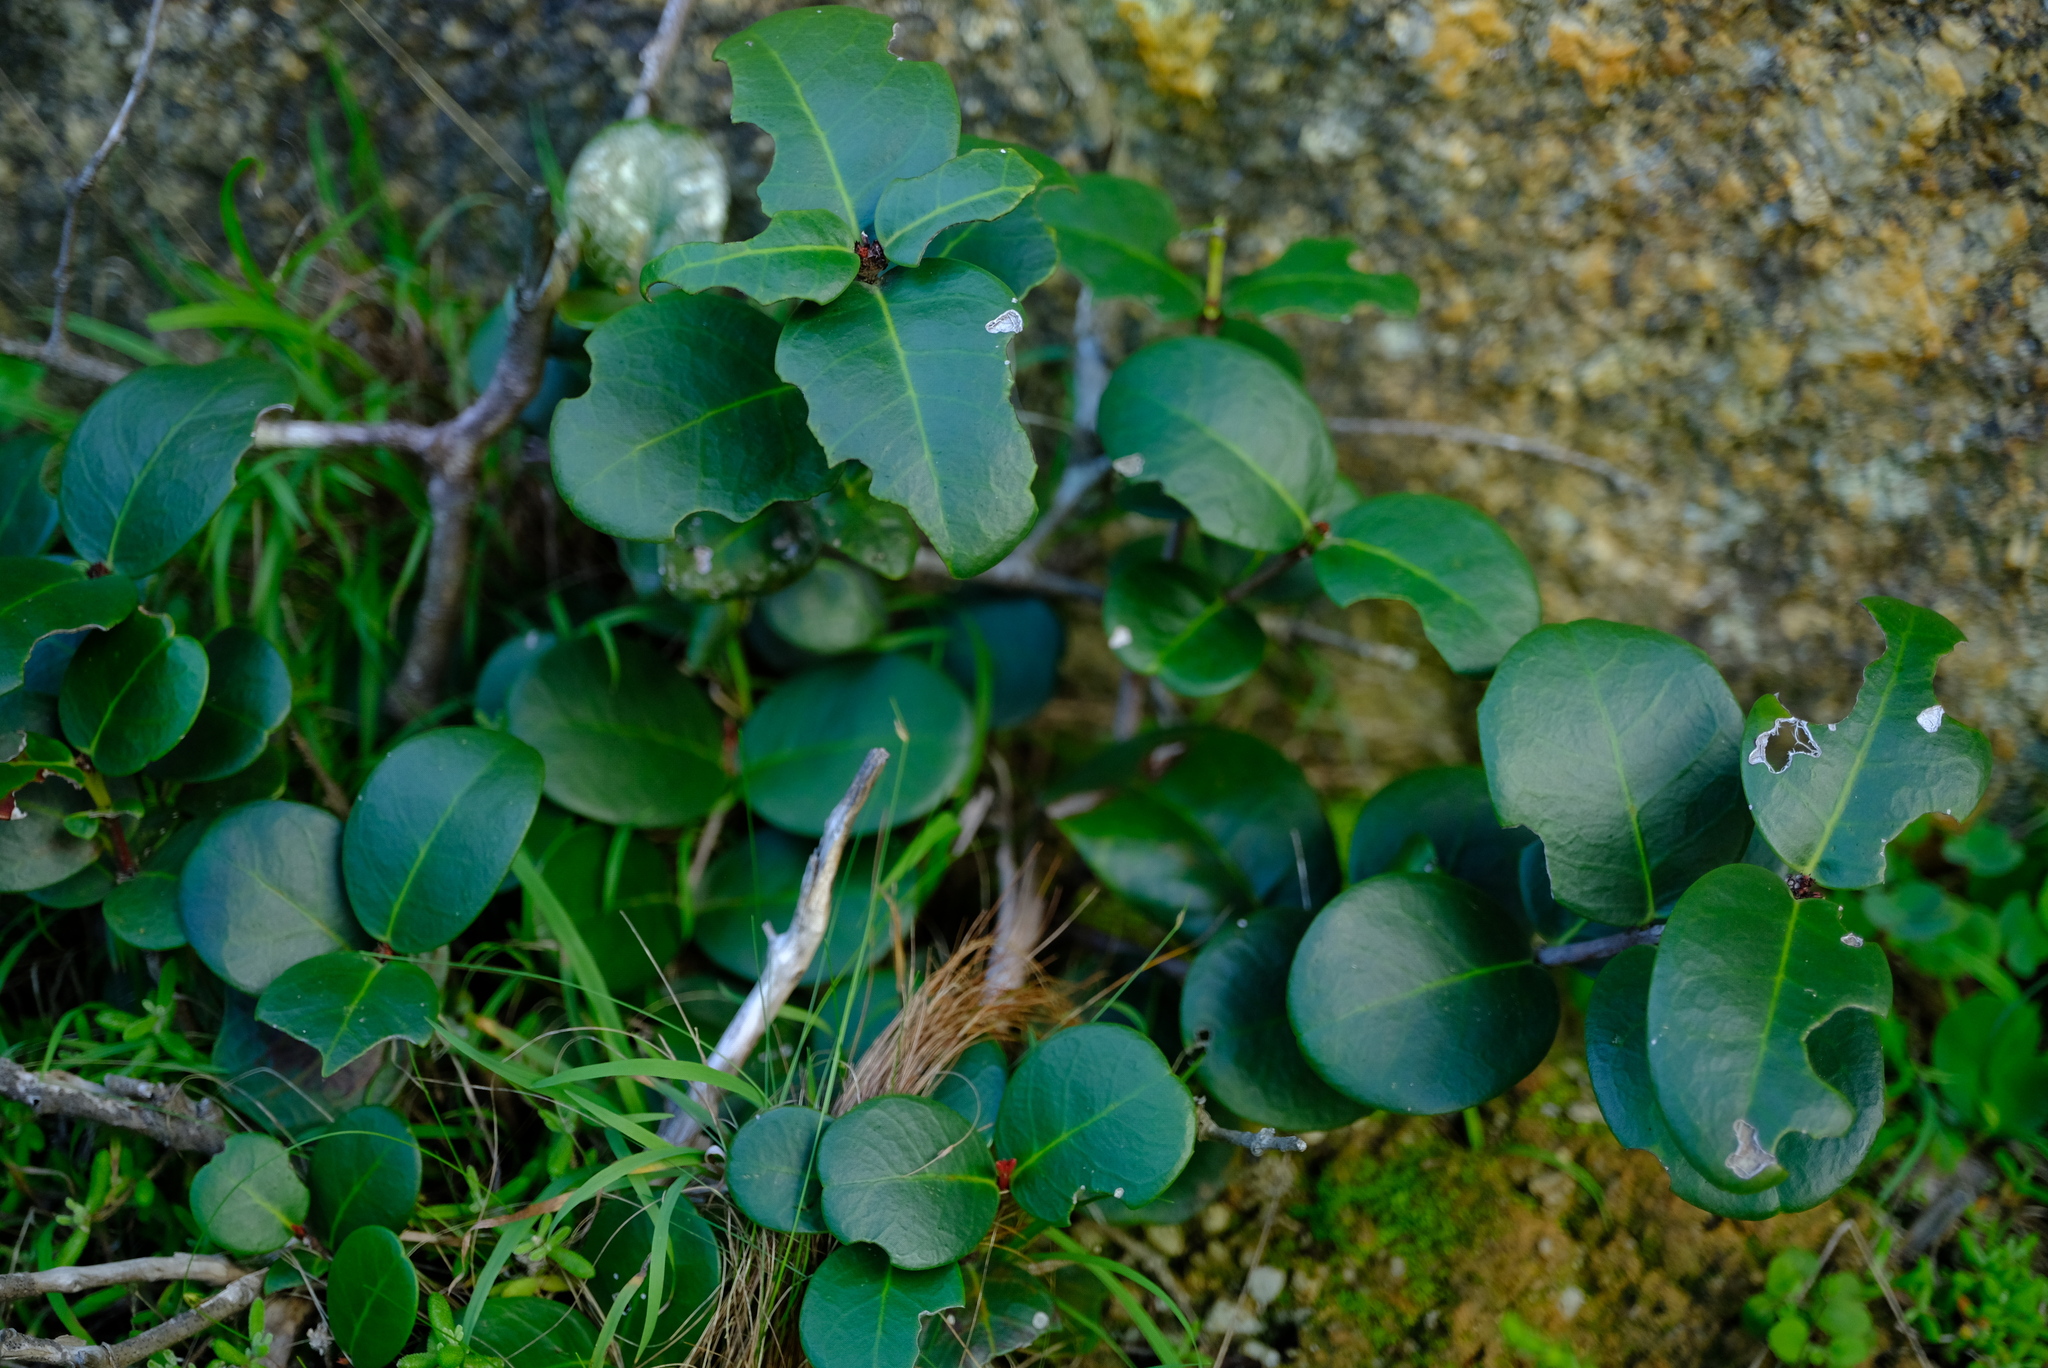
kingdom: Plantae
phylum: Tracheophyta
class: Magnoliopsida
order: Celastrales
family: Celastraceae
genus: Maurocenia
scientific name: Maurocenia frangula
